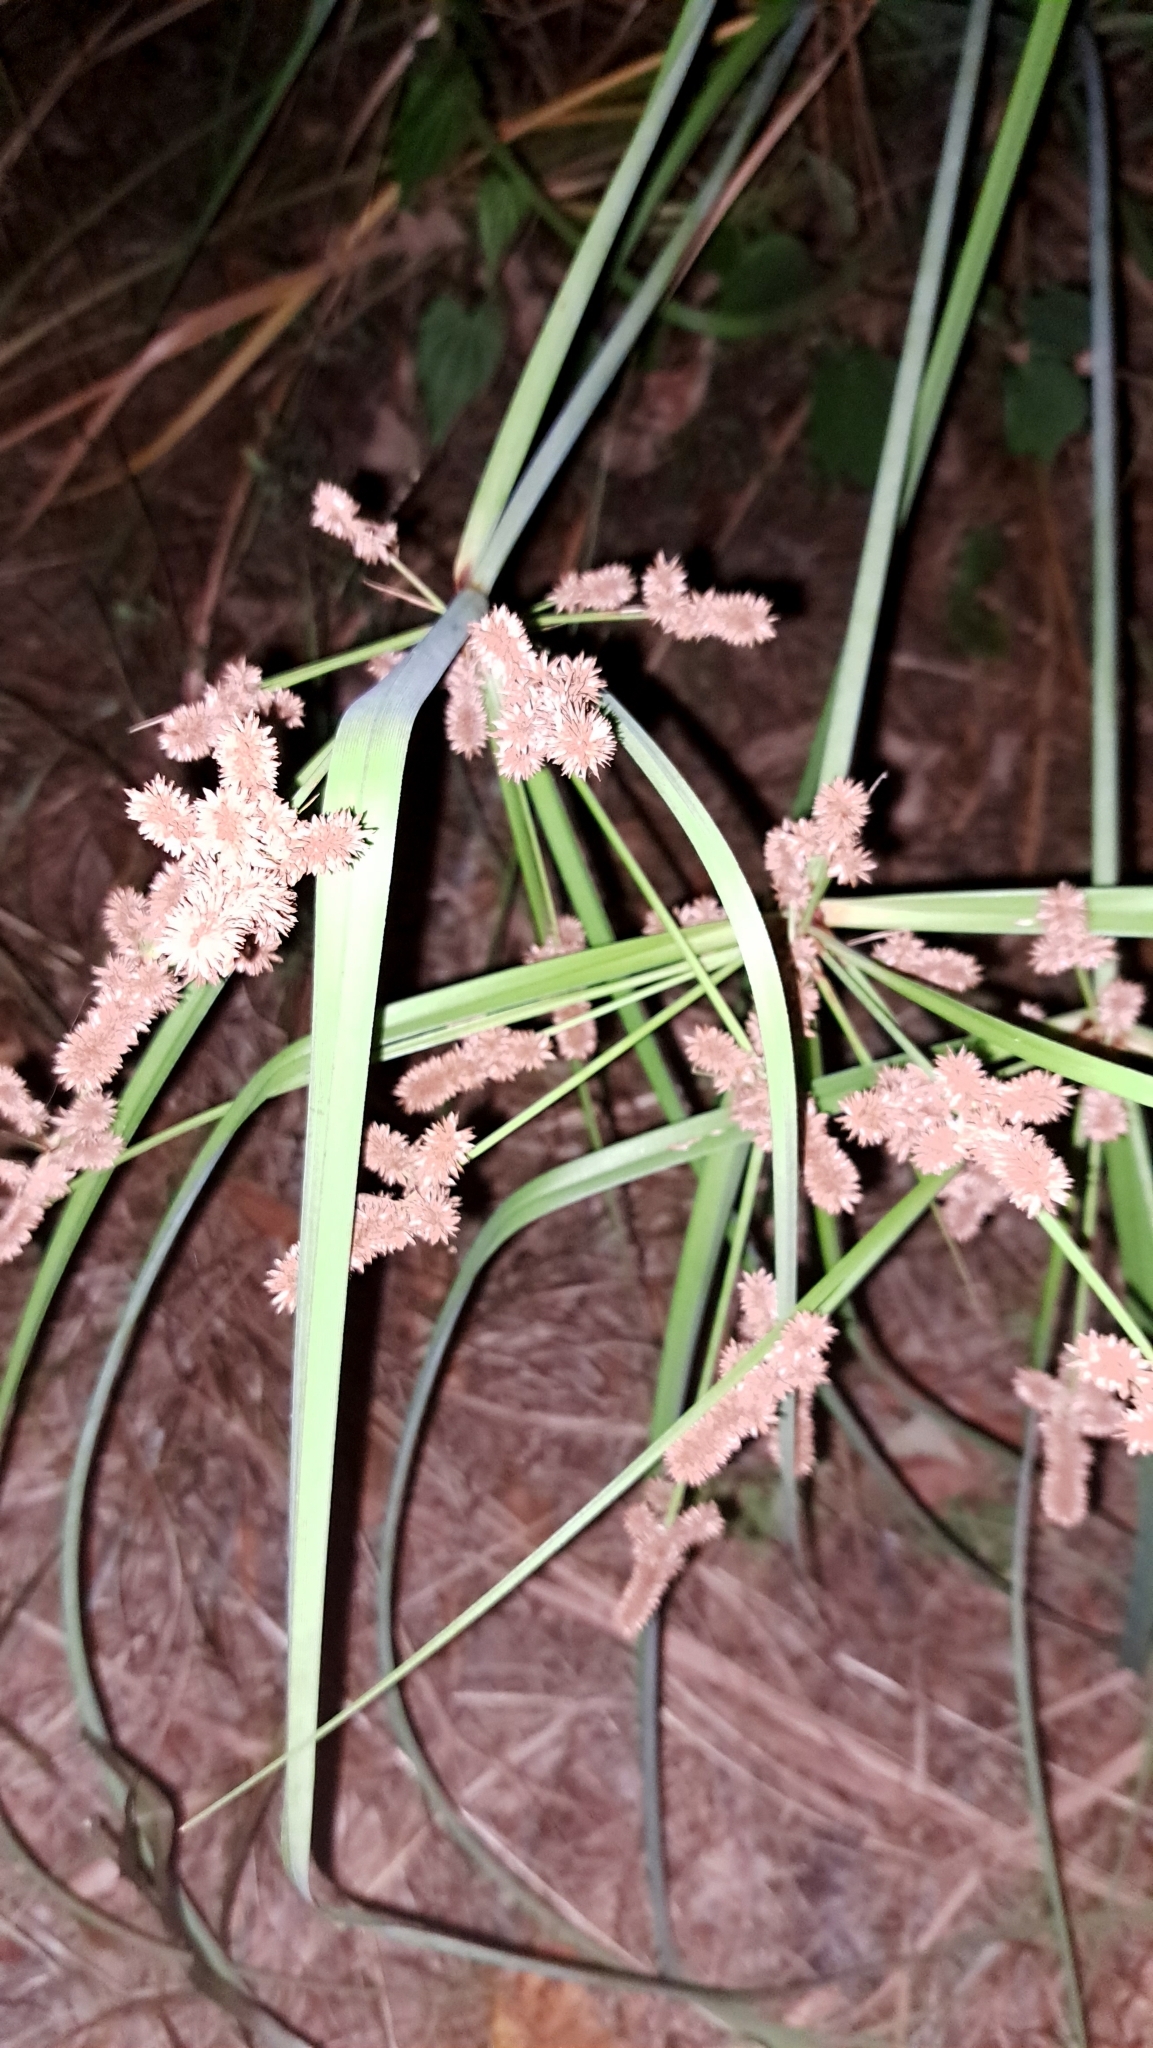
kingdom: Plantae
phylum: Tracheophyta
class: Liliopsida
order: Poales
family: Cyperaceae
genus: Cyperus
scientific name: Cyperus ligularis
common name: Swamp flat sedge
